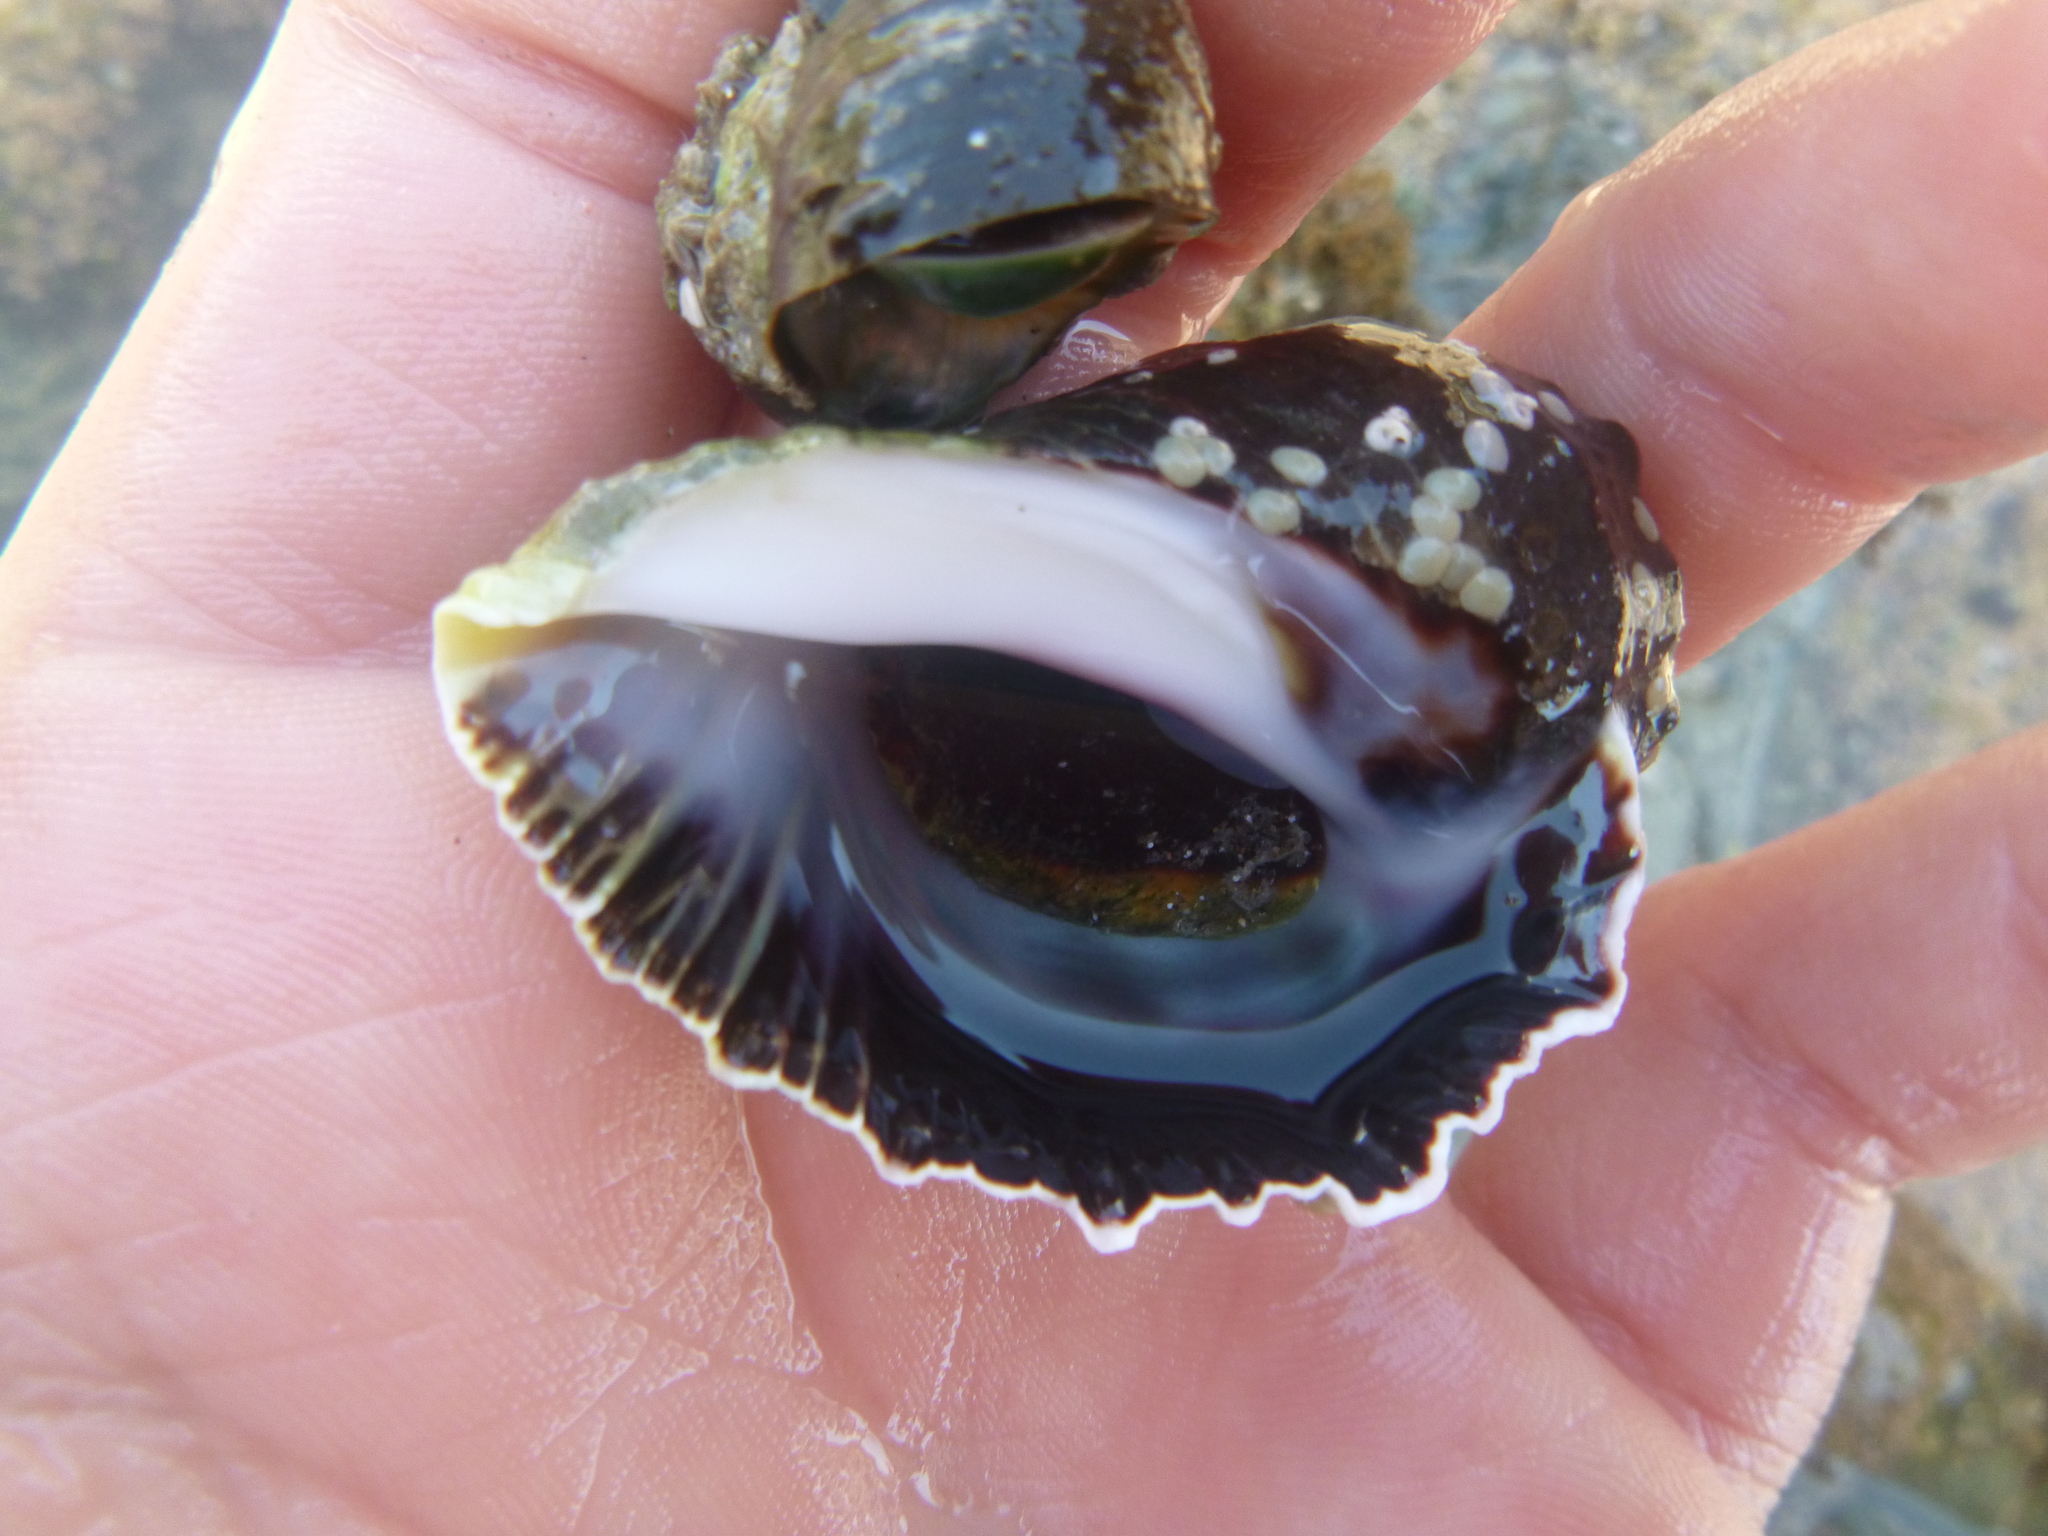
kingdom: Animalia
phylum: Mollusca
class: Gastropoda
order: Neogastropoda
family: Muricidae
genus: Haustrum
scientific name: Haustrum haustorium
